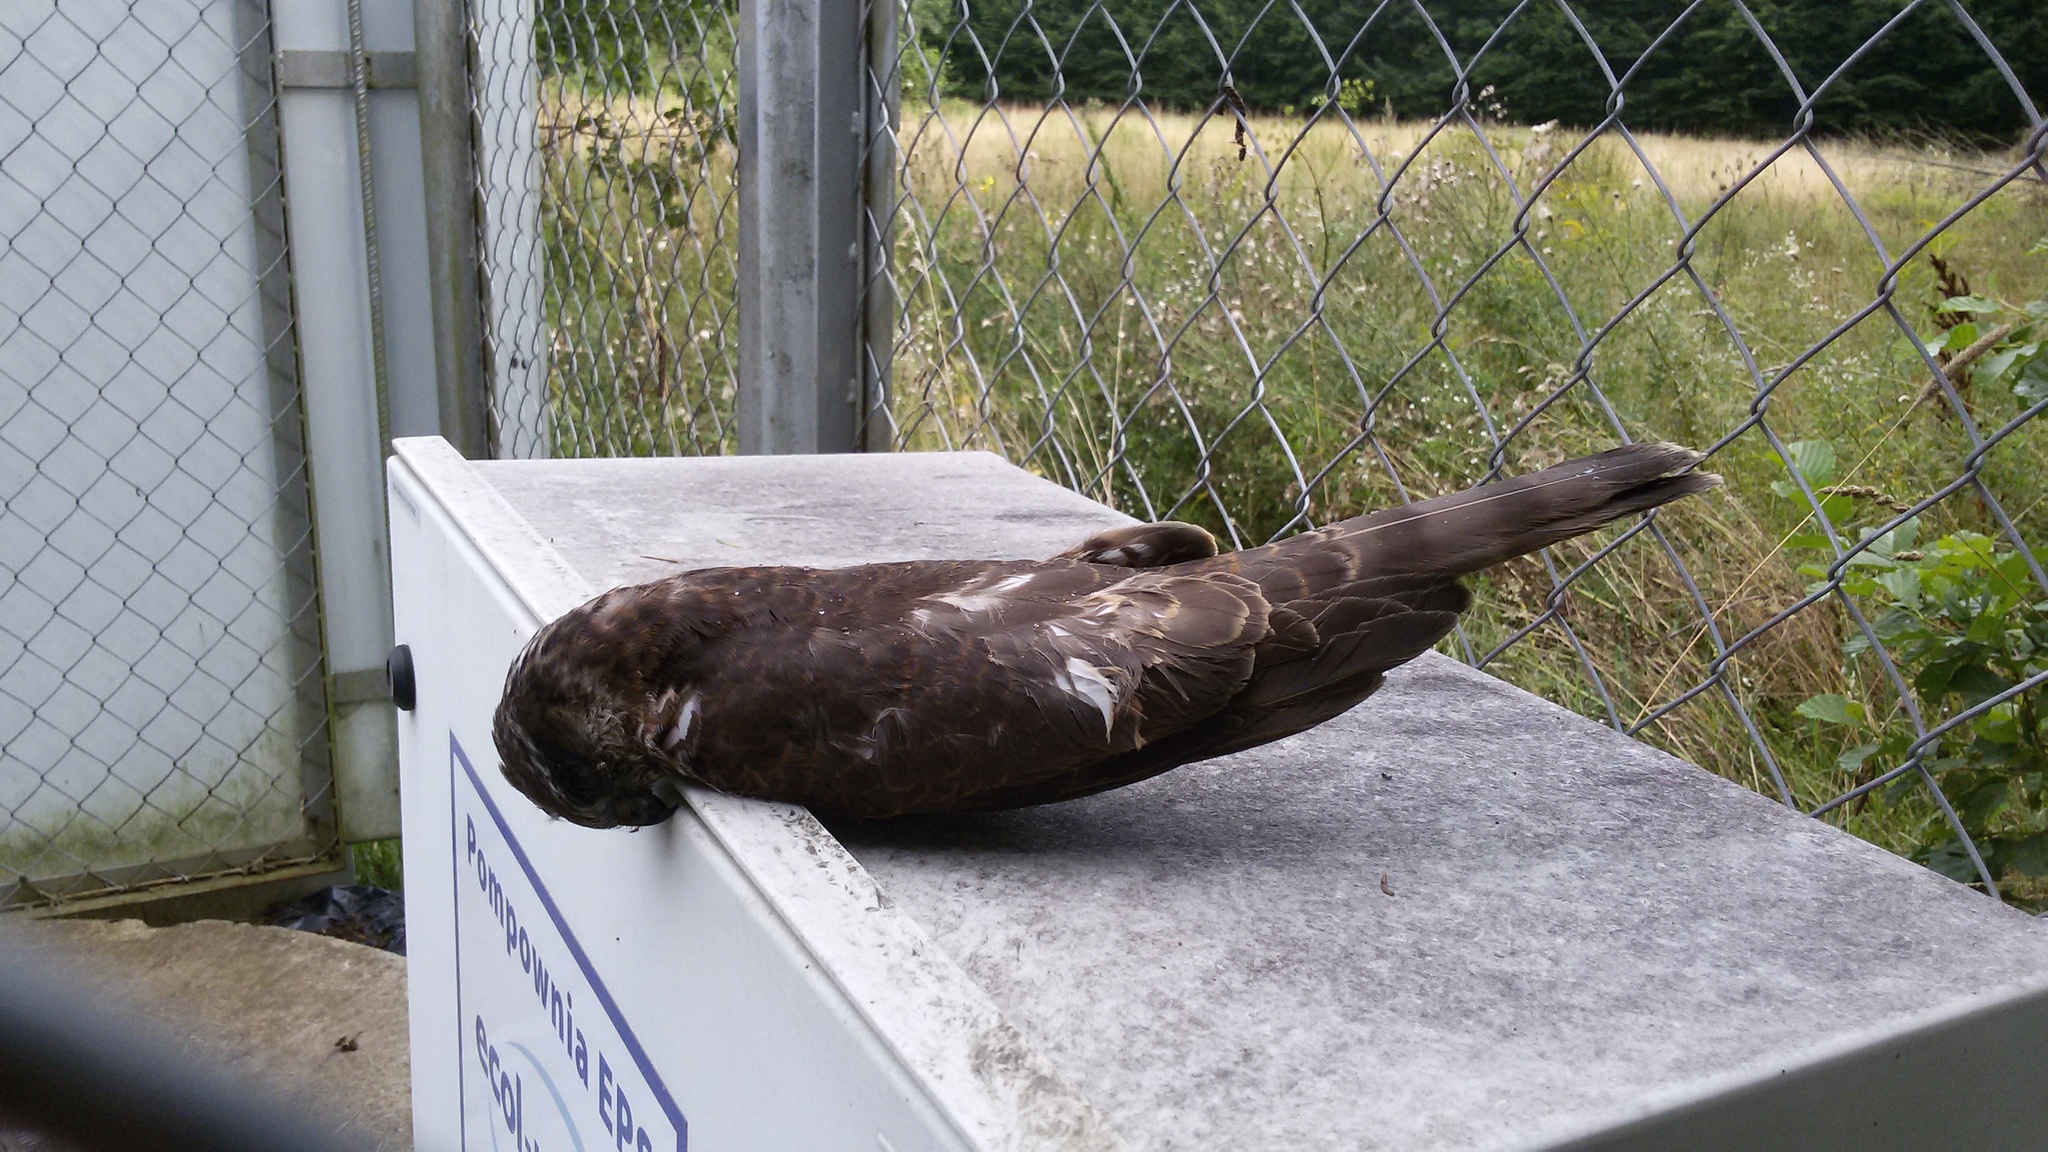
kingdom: Animalia
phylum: Chordata
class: Aves
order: Accipitriformes
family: Accipitridae
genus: Accipiter
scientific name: Accipiter nisus
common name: Eurasian sparrowhawk
